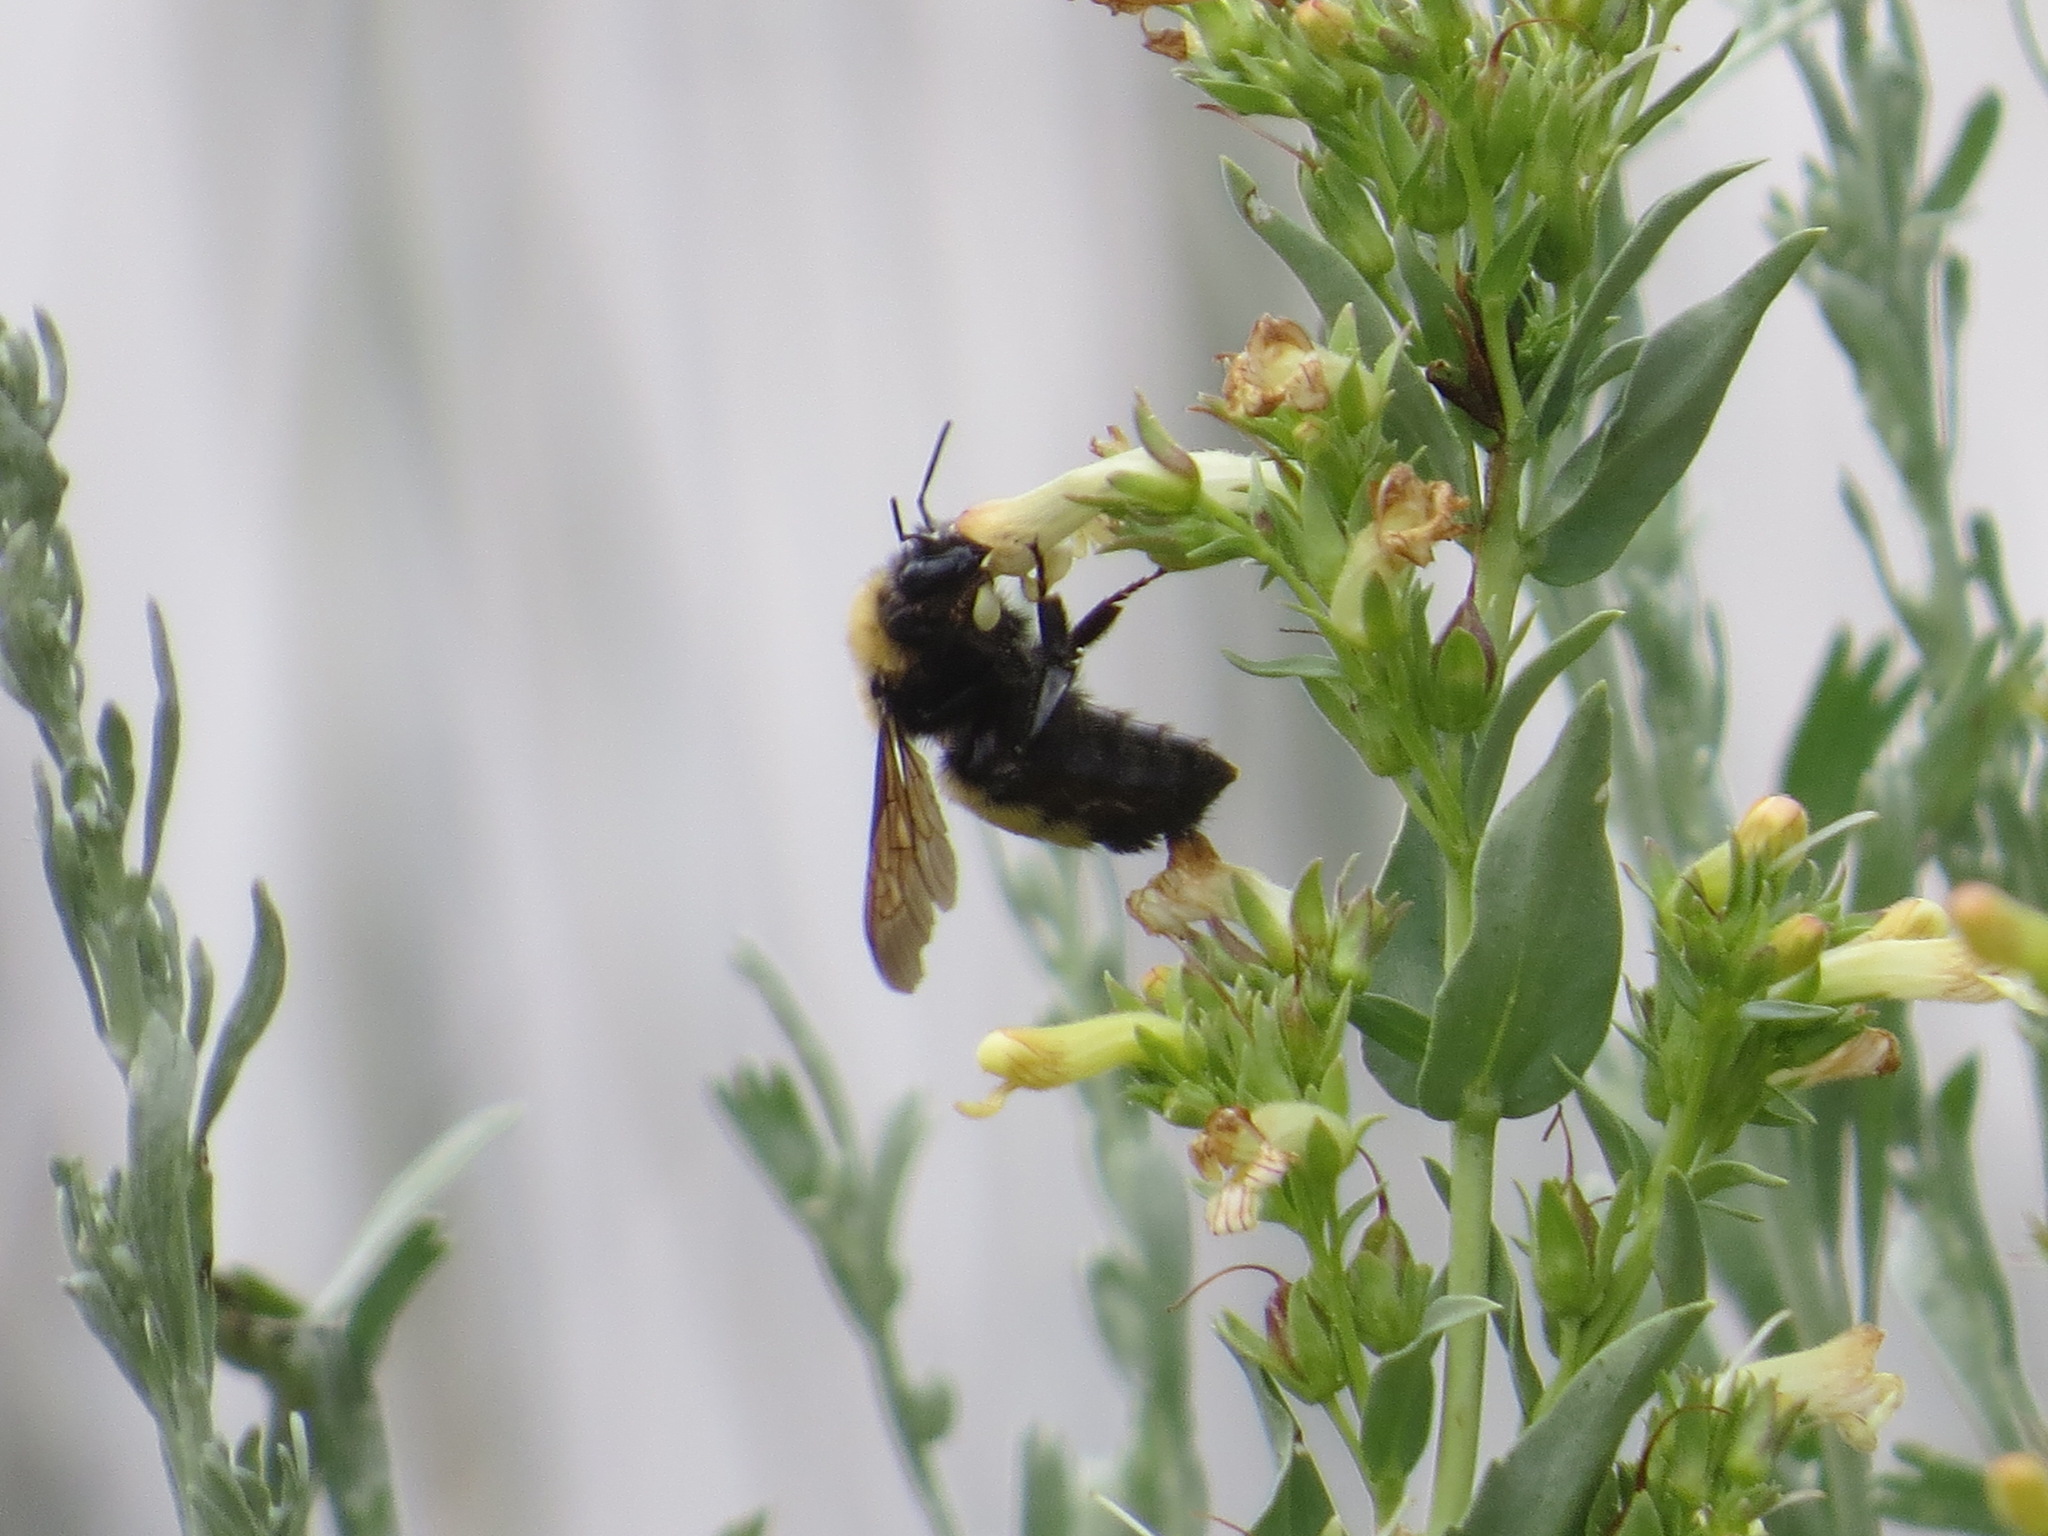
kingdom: Animalia
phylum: Arthropoda
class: Insecta
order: Hymenoptera
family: Apidae
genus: Bombus
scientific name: Bombus nevadensis
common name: Nevada bumble bee
